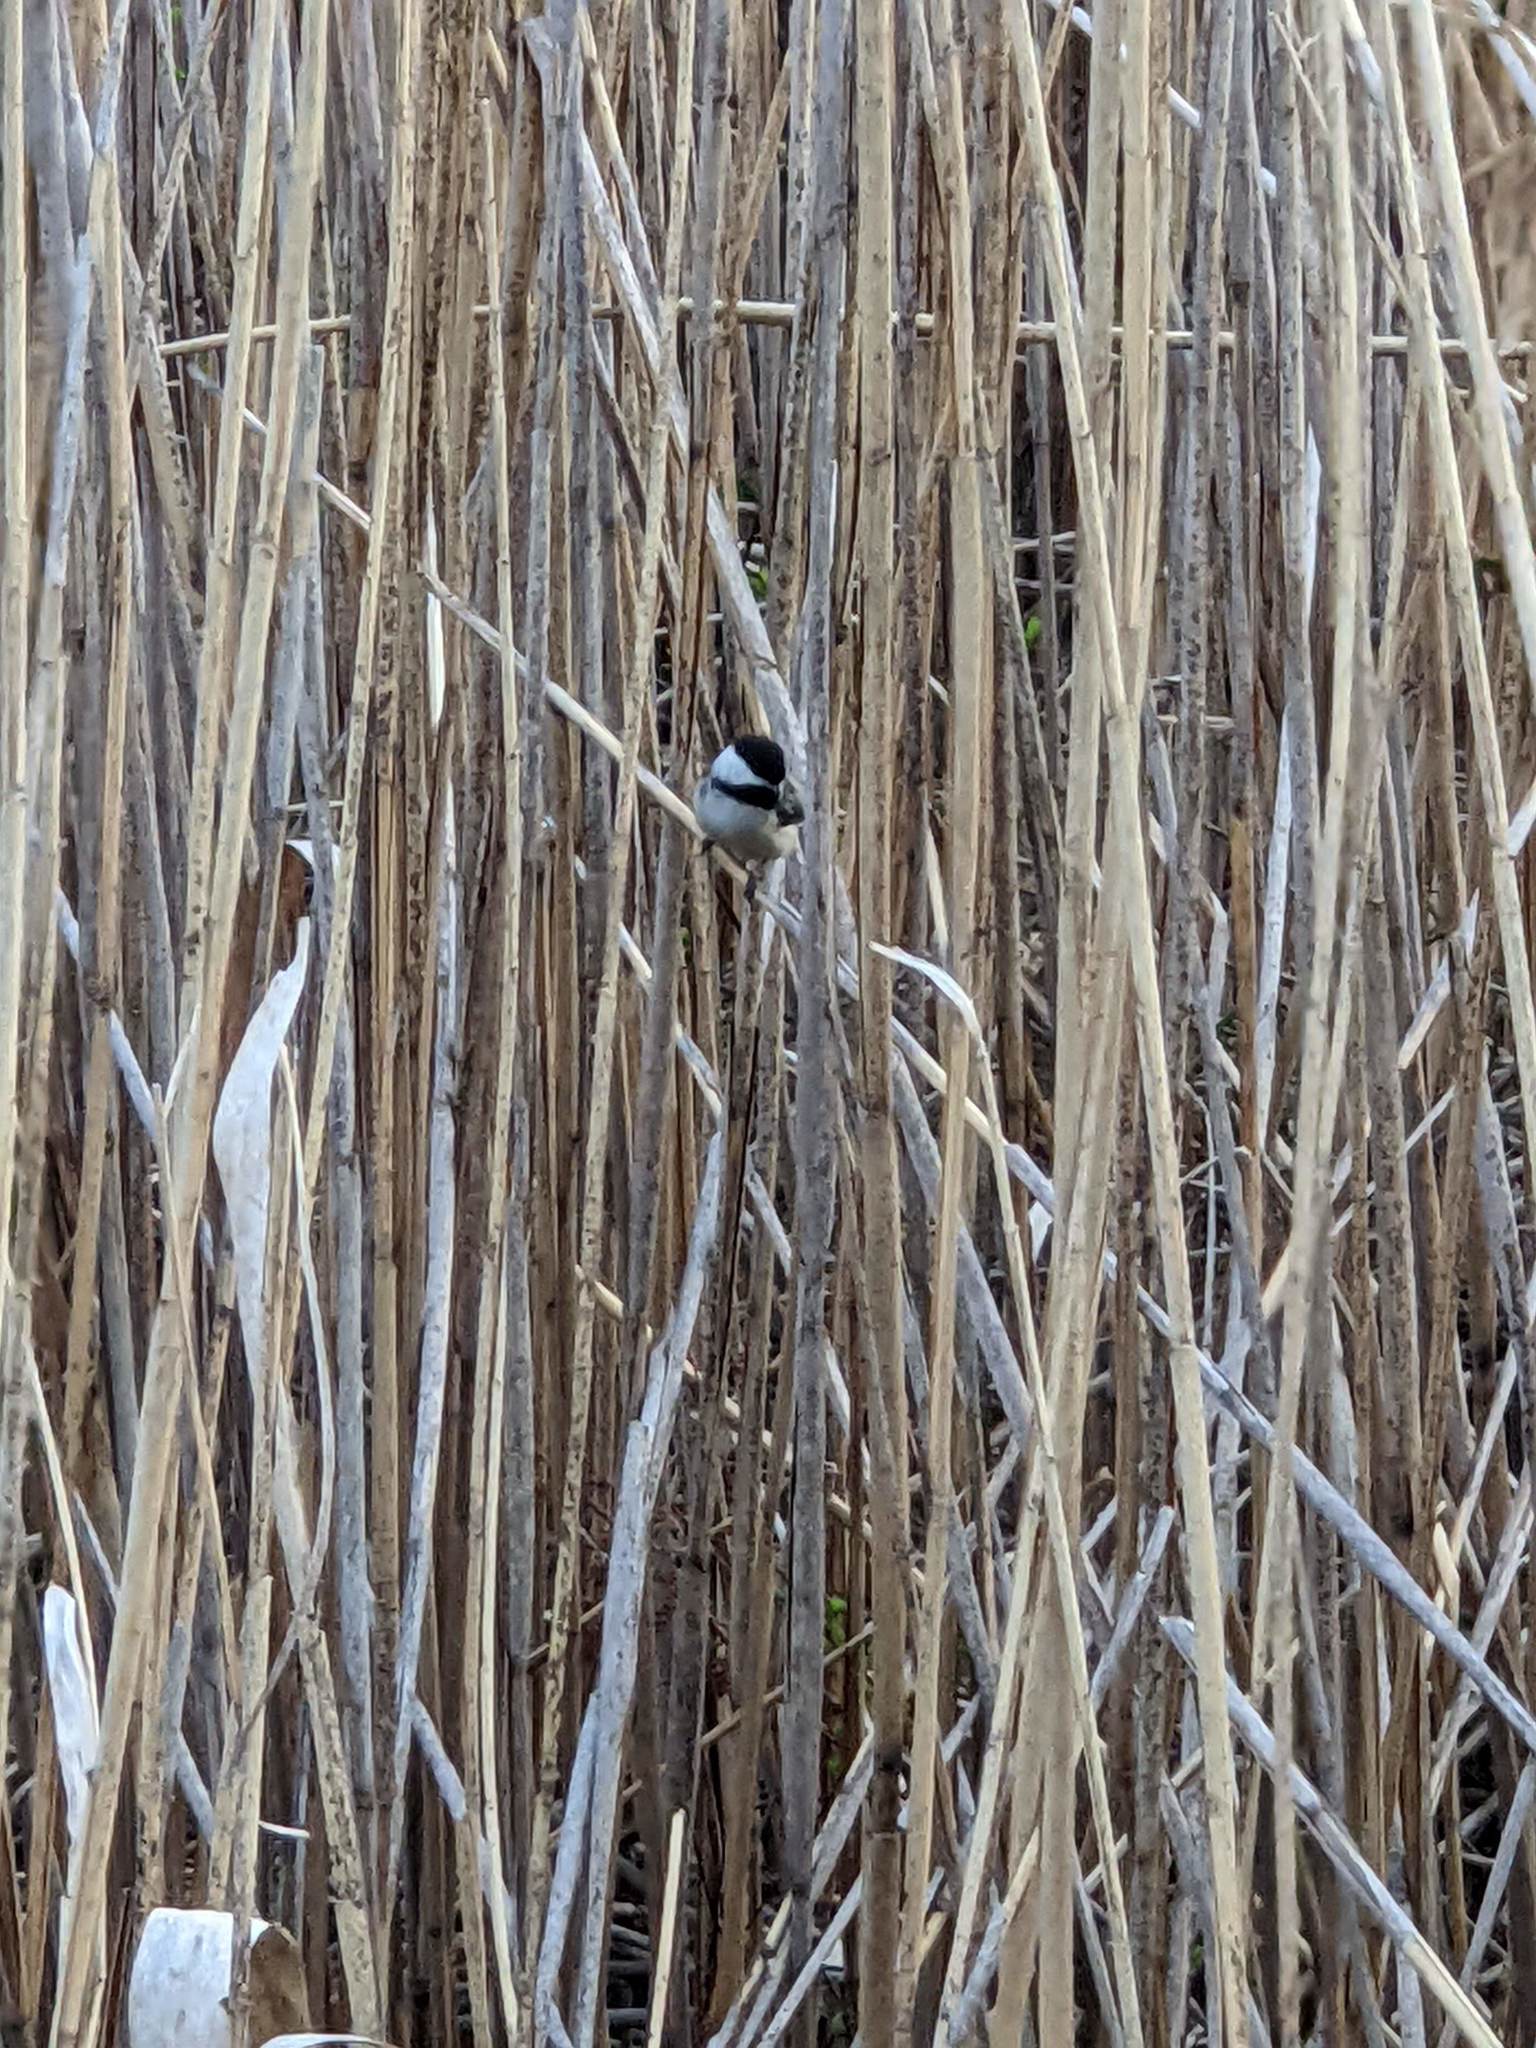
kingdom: Animalia
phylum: Chordata
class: Aves
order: Passeriformes
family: Paridae
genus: Poecile
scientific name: Poecile atricapillus
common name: Black-capped chickadee
